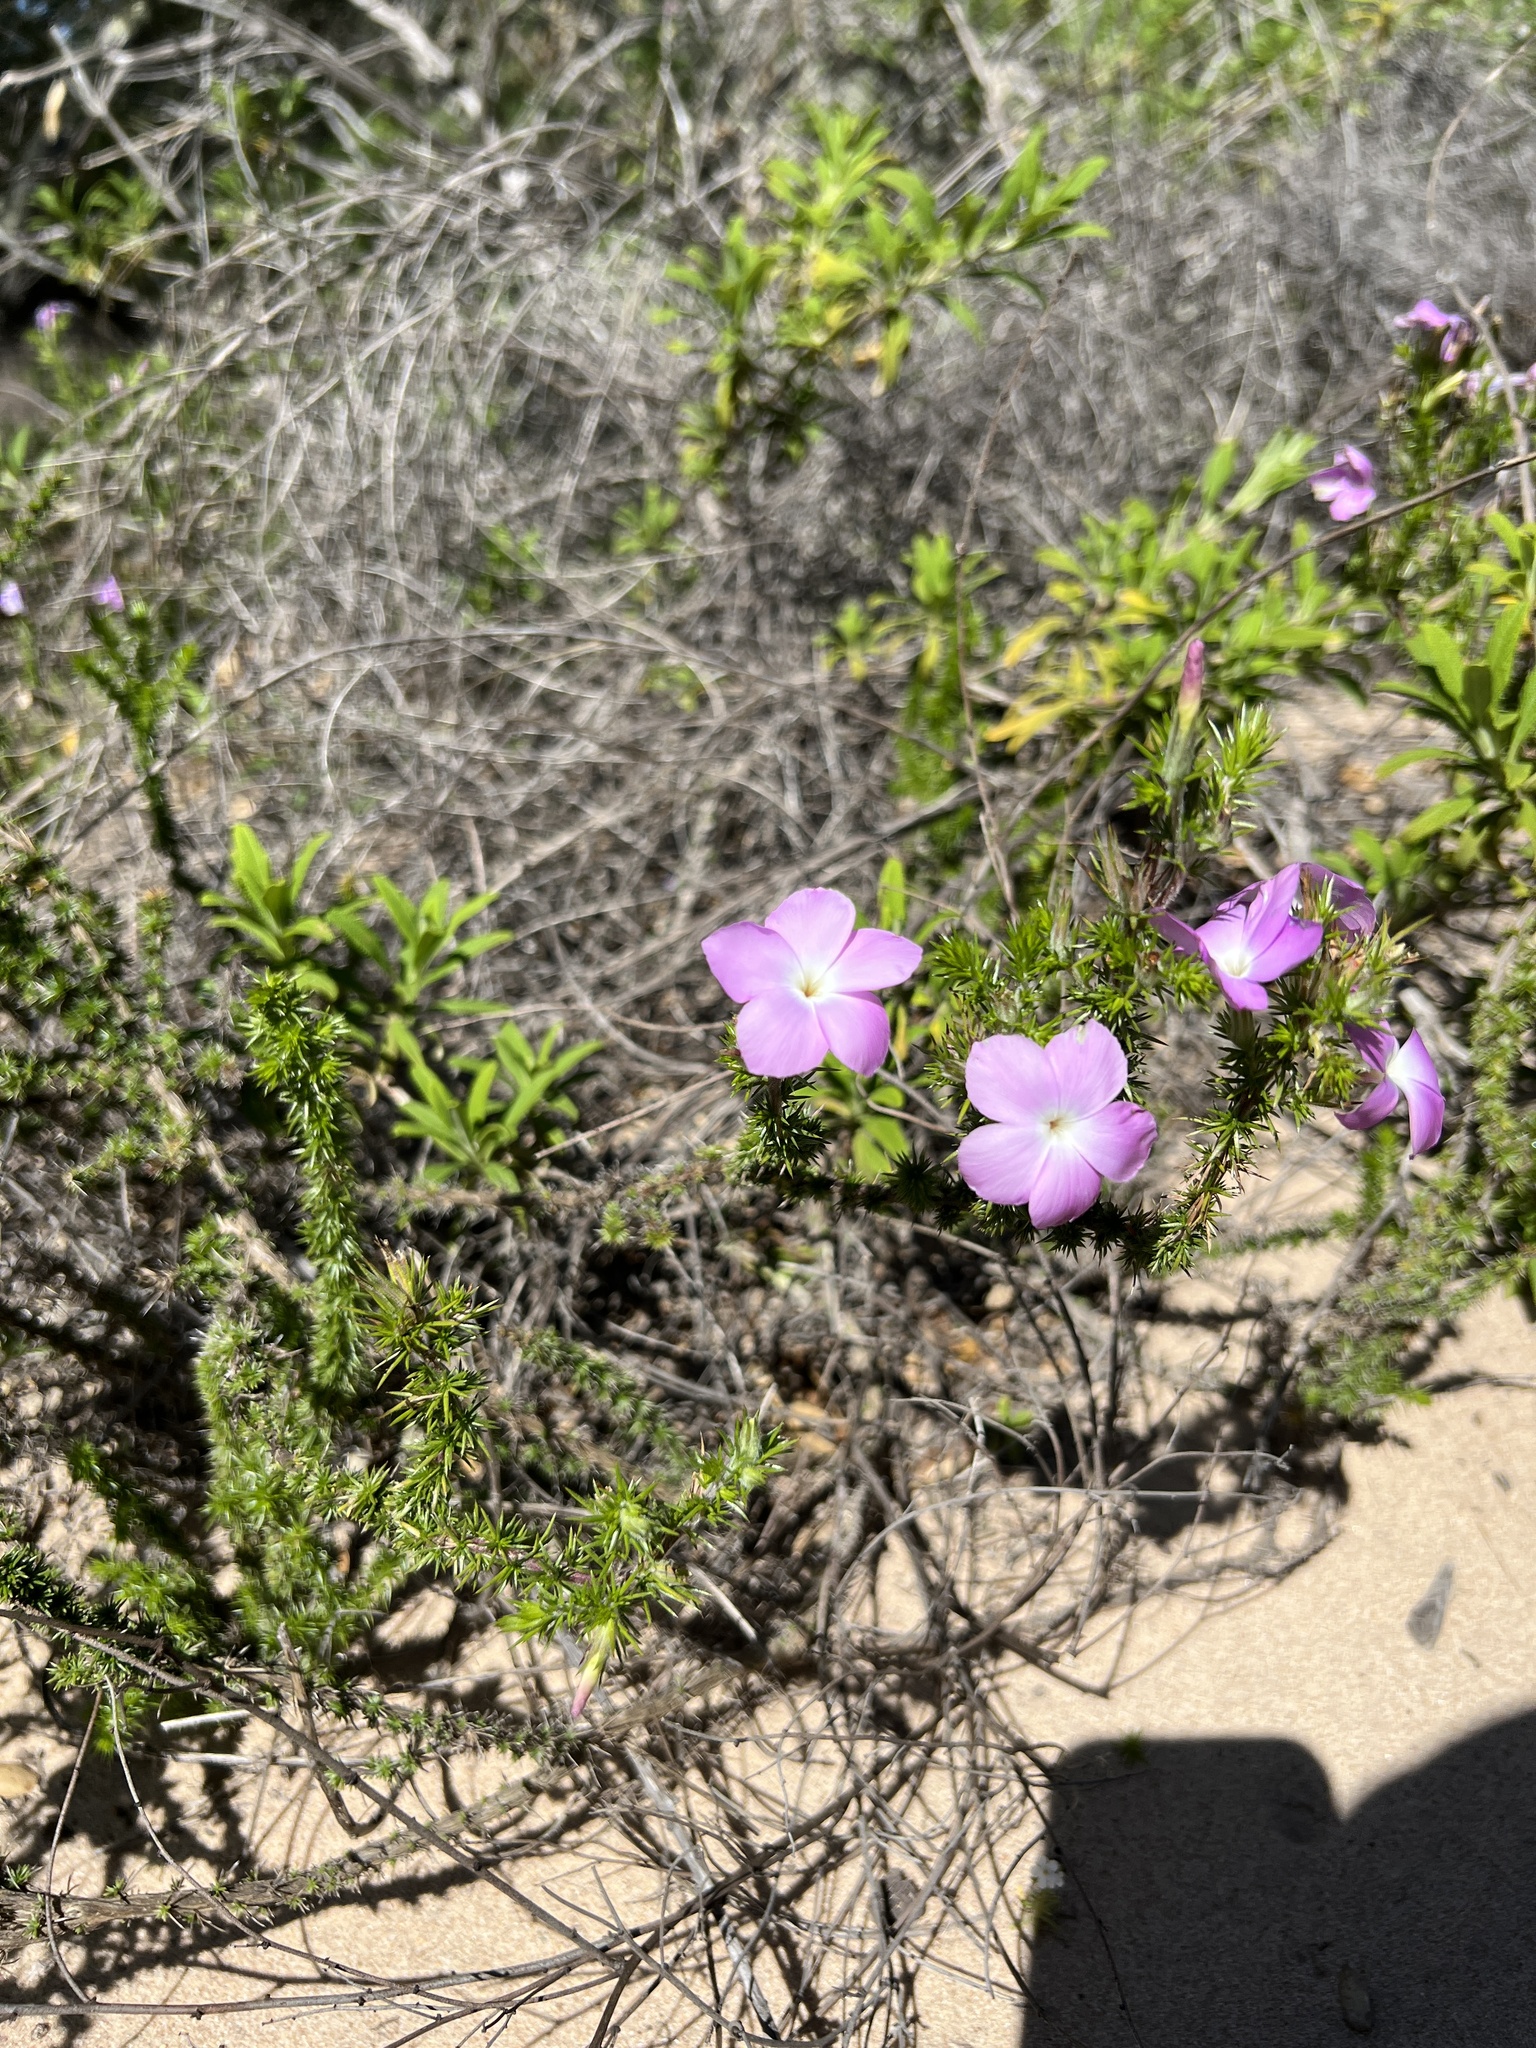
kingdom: Plantae
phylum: Tracheophyta
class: Magnoliopsida
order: Ericales
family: Polemoniaceae
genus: Linanthus
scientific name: Linanthus californicus
